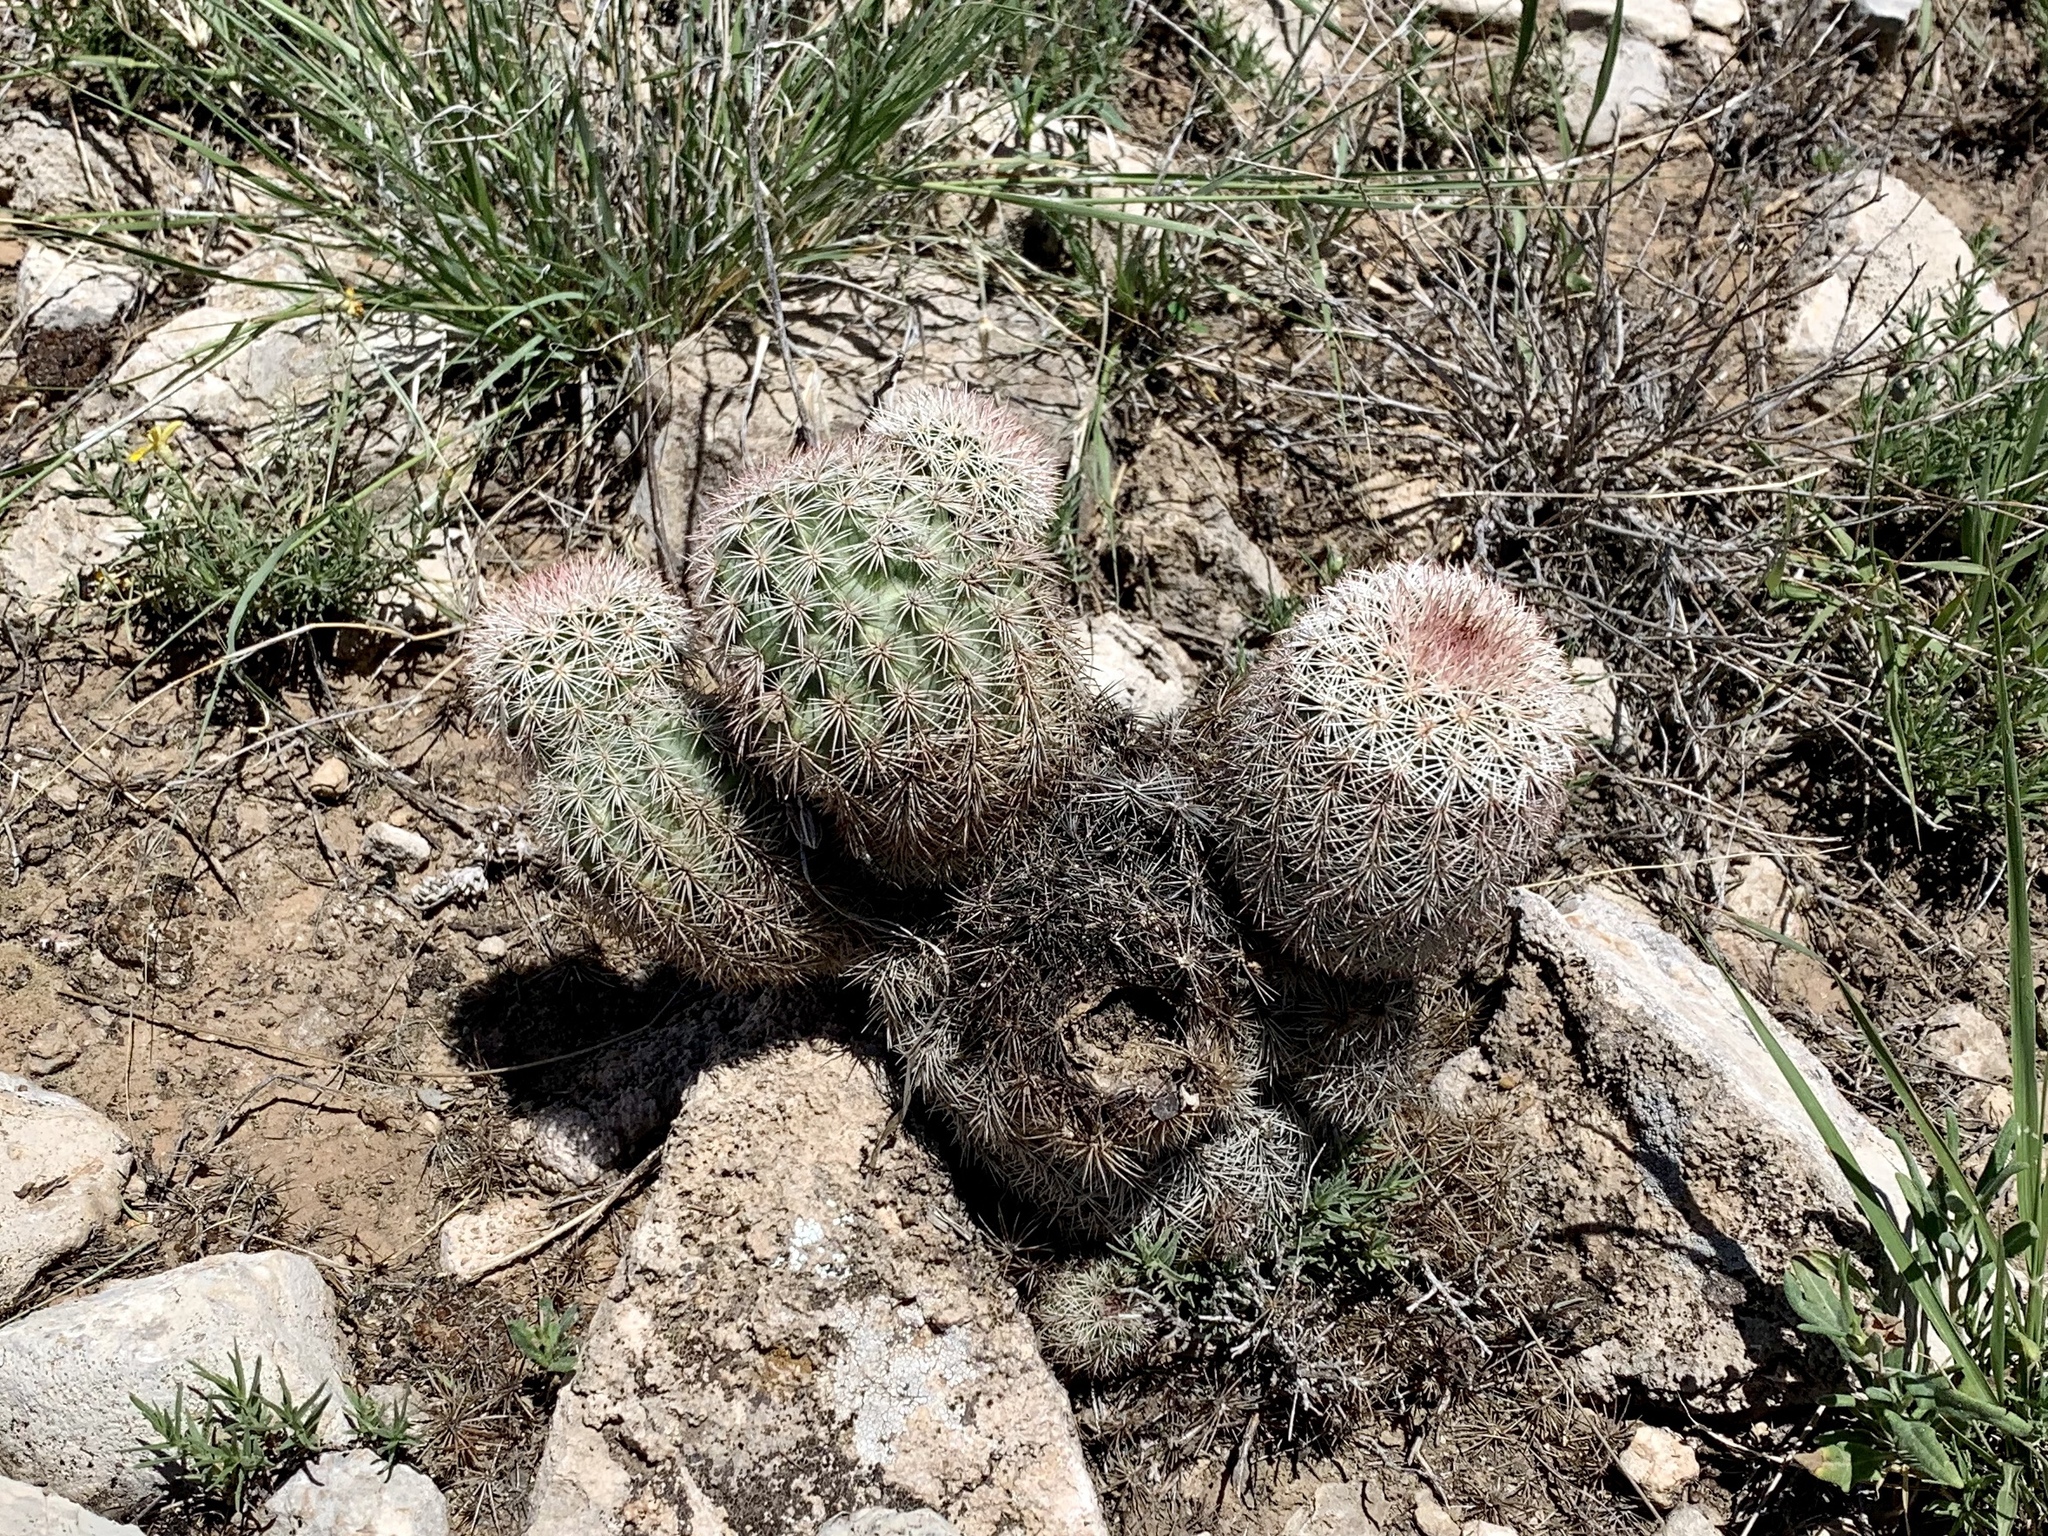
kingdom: Plantae
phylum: Tracheophyta
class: Magnoliopsida
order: Caryophyllales
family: Cactaceae
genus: Echinocereus
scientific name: Echinocereus dasyacanthus
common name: Spiny hedgehog cactus
